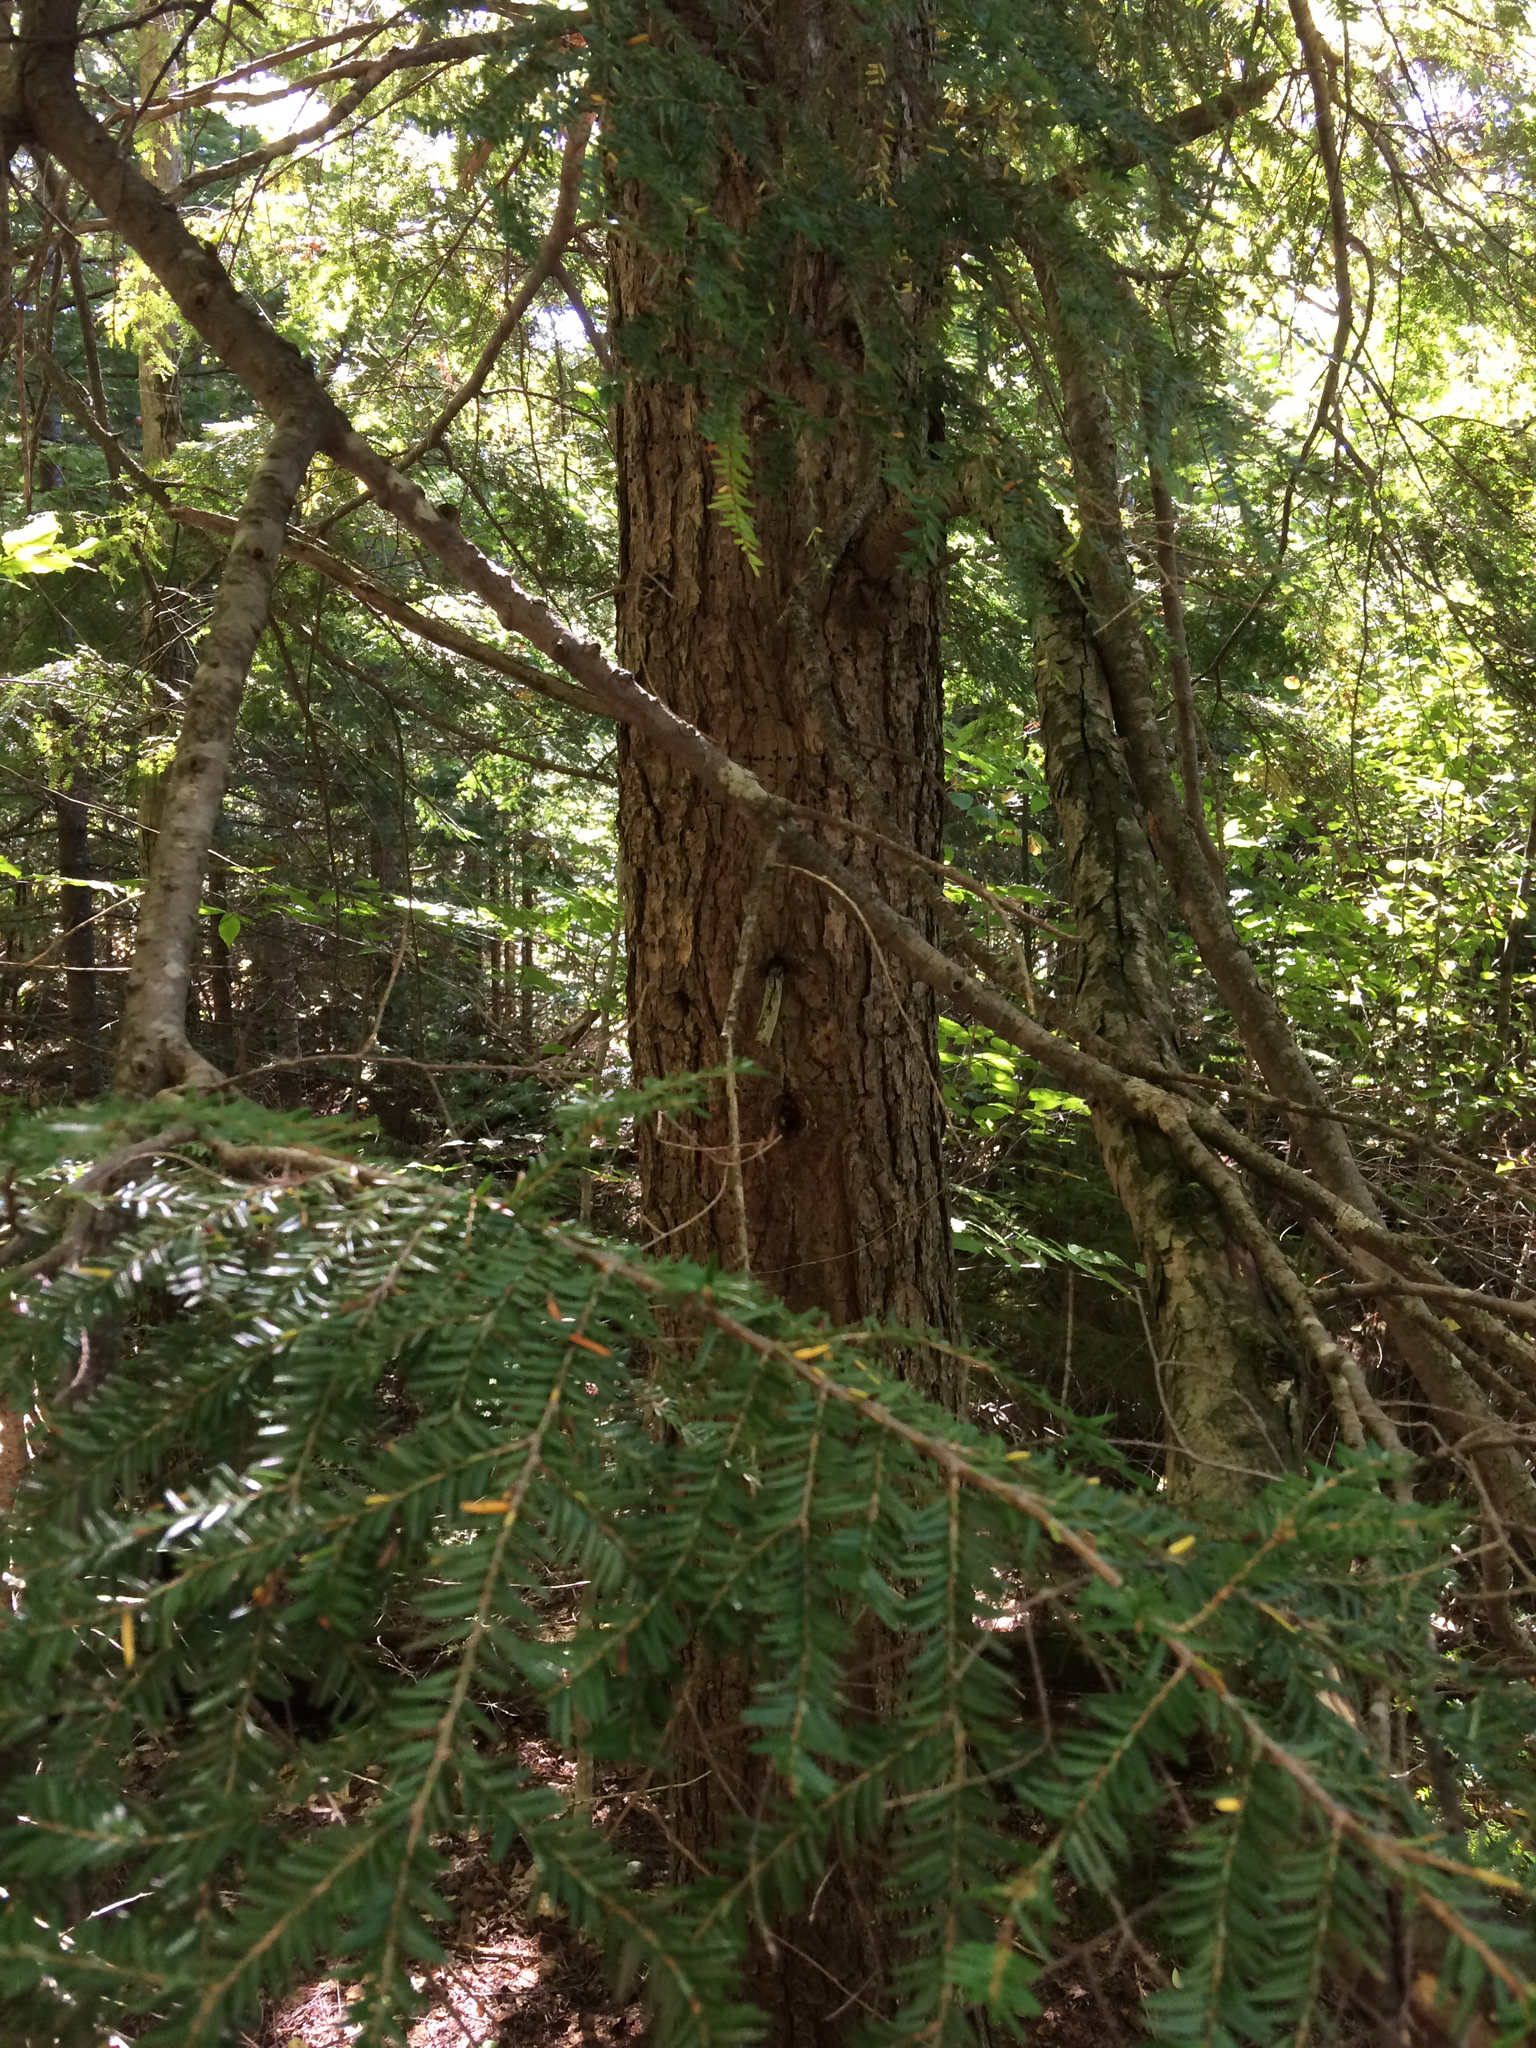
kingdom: Plantae
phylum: Tracheophyta
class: Pinopsida
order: Pinales
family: Pinaceae
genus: Tsuga
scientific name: Tsuga canadensis
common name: Eastern hemlock
